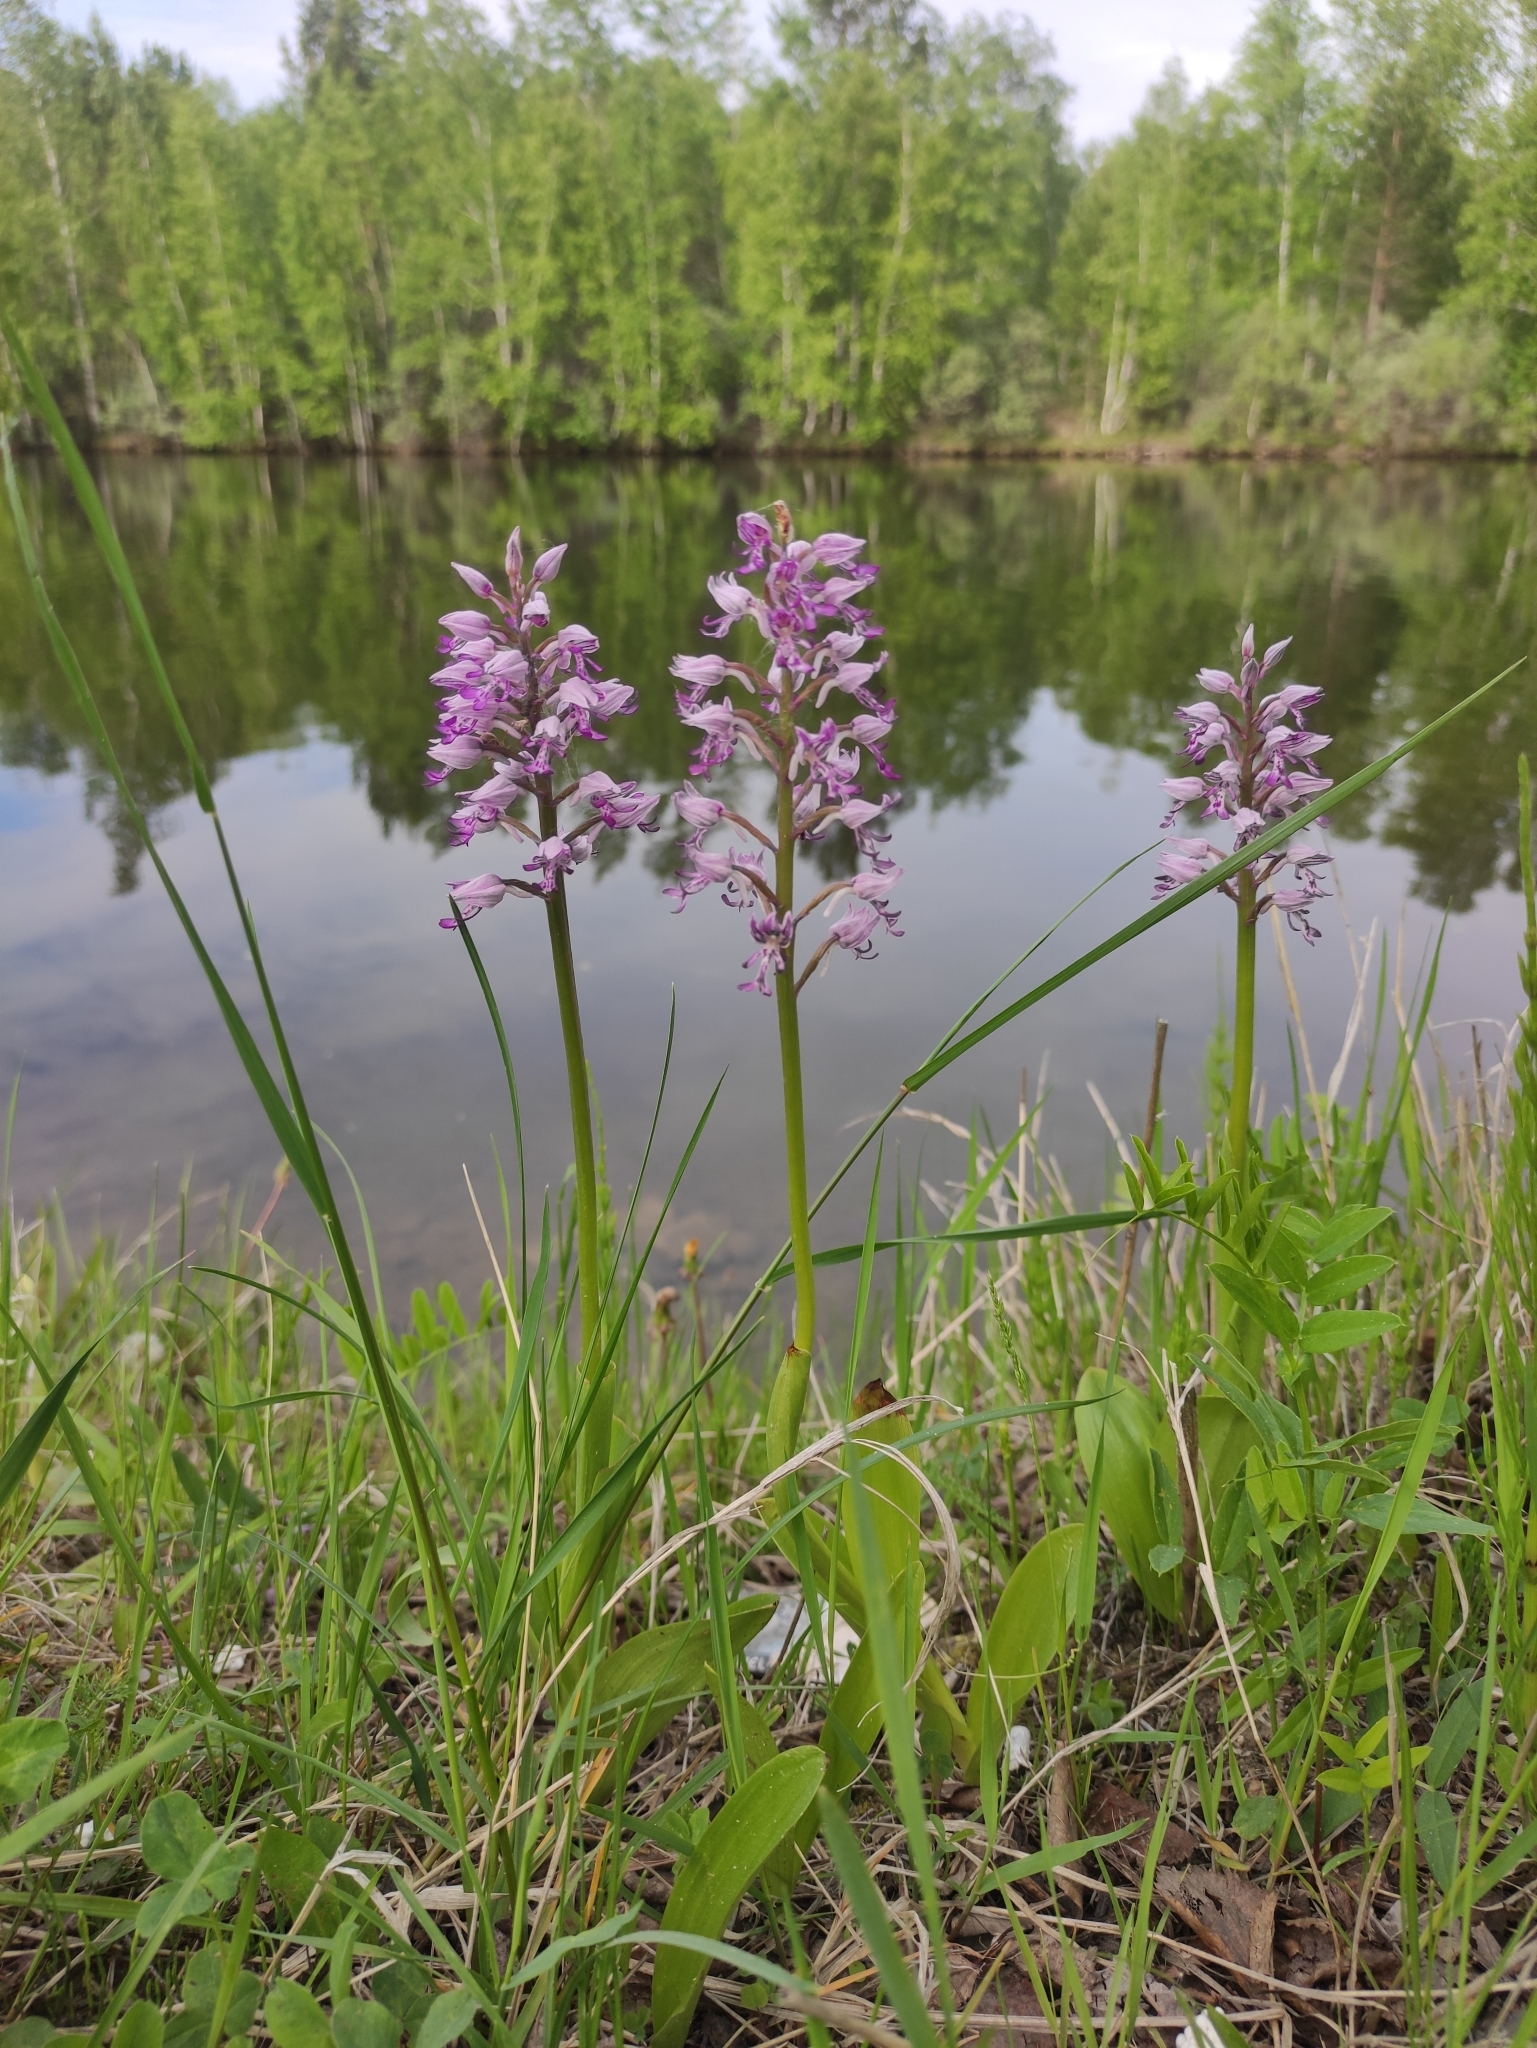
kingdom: Plantae
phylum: Tracheophyta
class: Liliopsida
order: Asparagales
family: Orchidaceae
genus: Orchis
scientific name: Orchis militaris
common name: Military orchid
